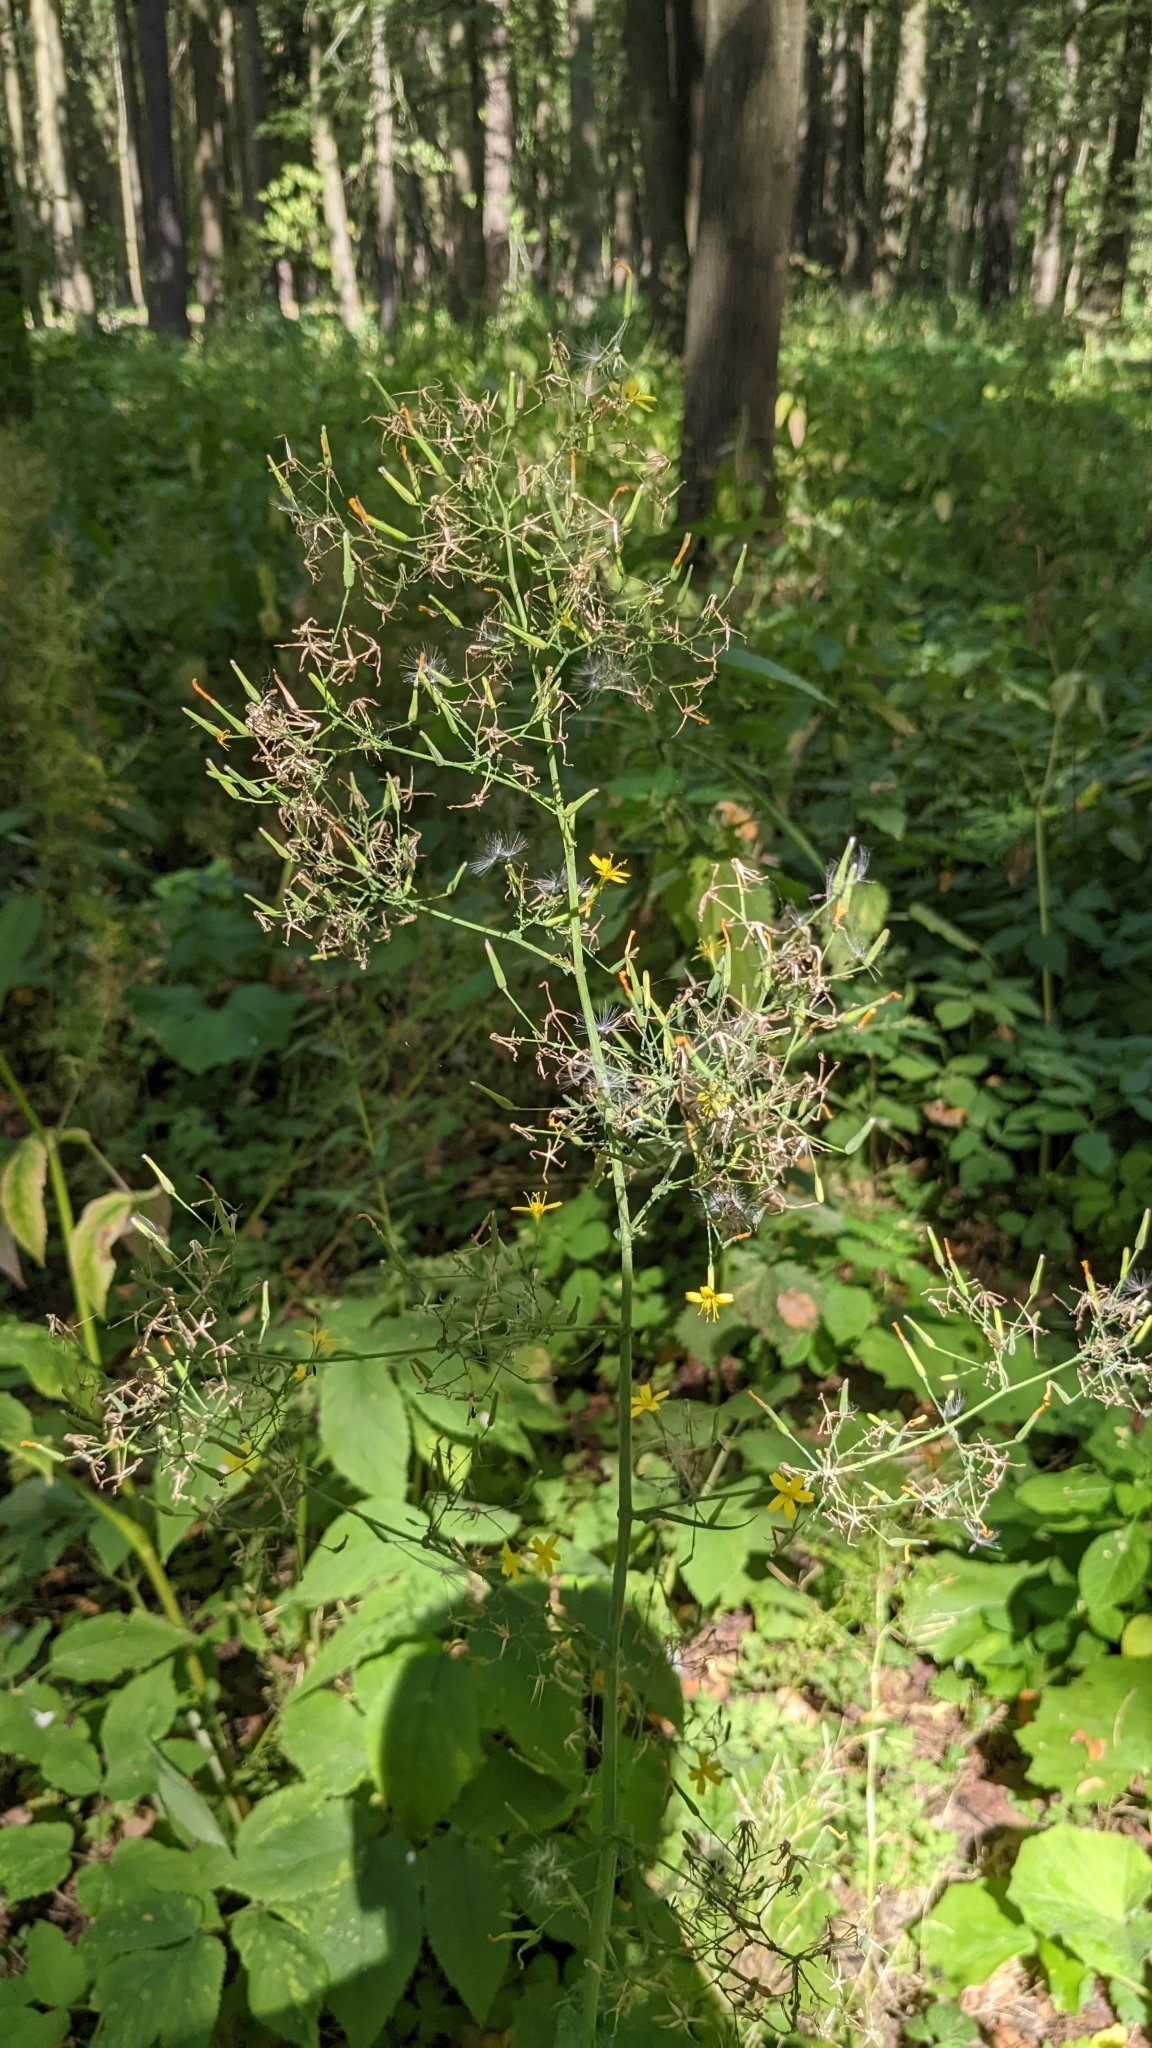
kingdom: Plantae
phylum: Tracheophyta
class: Magnoliopsida
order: Asterales
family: Asteraceae
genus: Mycelis
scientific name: Mycelis muralis
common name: Wall lettuce
